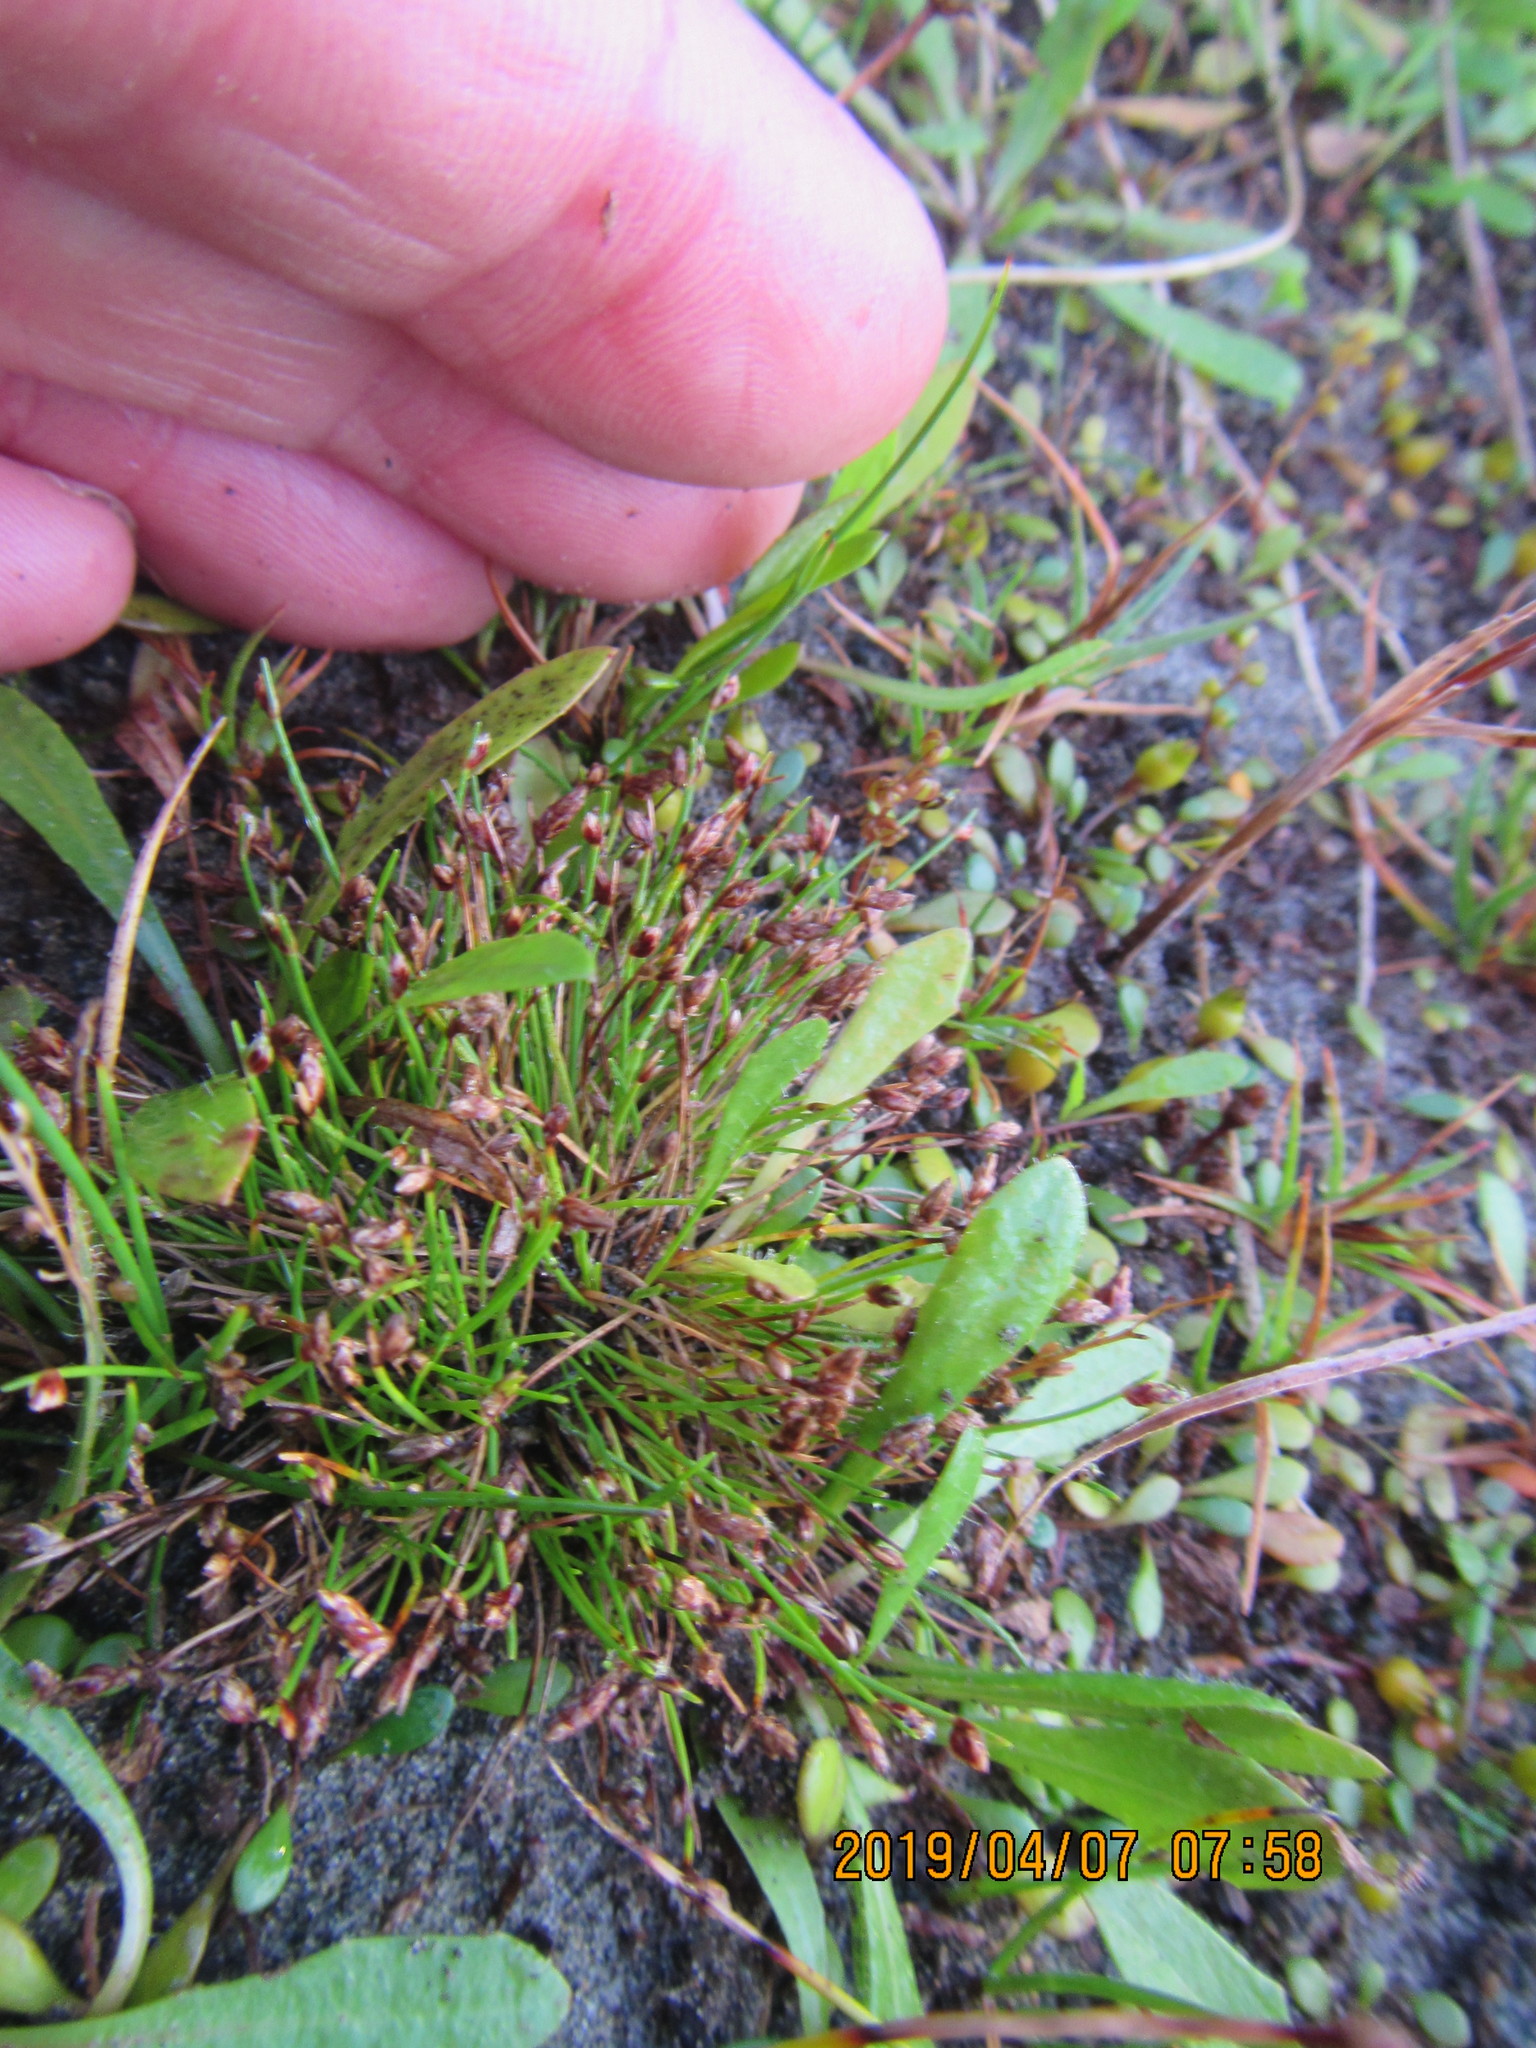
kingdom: Plantae
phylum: Tracheophyta
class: Liliopsida
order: Poales
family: Cyperaceae
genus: Isolepis
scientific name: Isolepis cernua
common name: Slender club-rush
